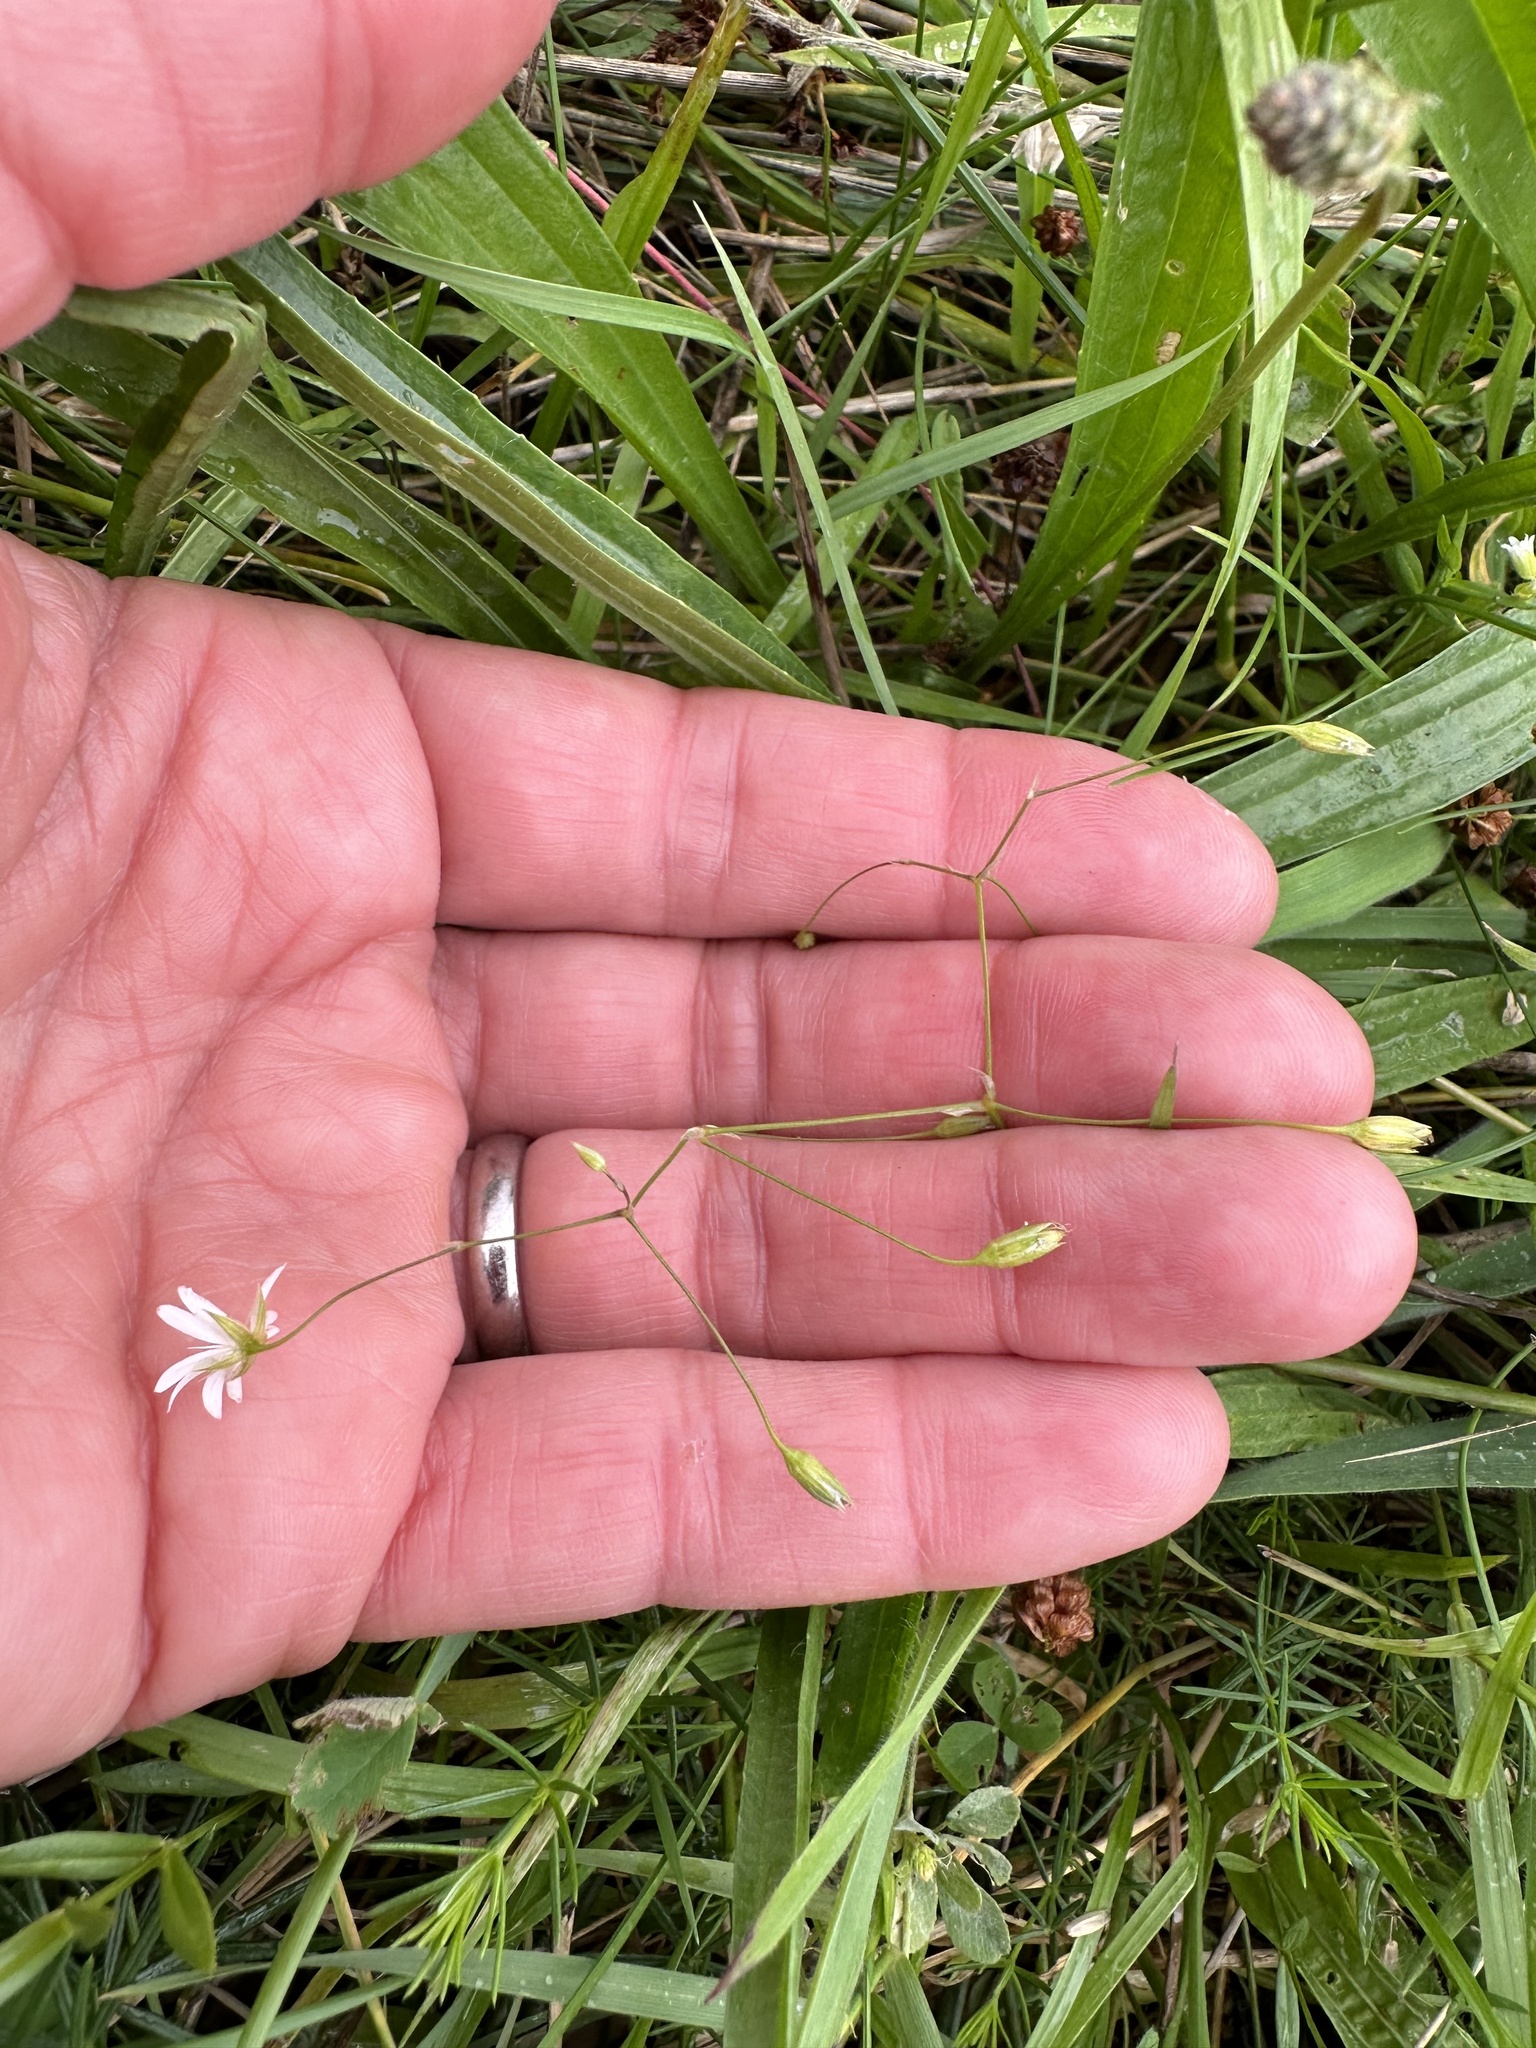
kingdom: Plantae
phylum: Tracheophyta
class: Magnoliopsida
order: Caryophyllales
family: Caryophyllaceae
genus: Stellaria
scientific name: Stellaria graminea
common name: Grass-like starwort
